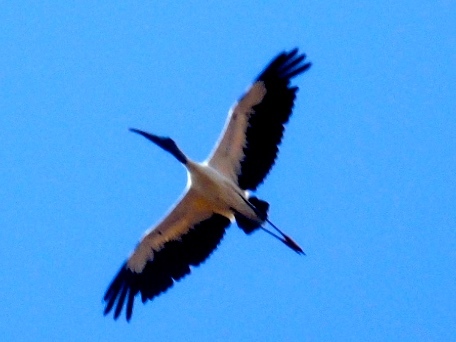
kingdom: Animalia
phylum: Chordata
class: Aves
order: Ciconiiformes
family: Ciconiidae
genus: Mycteria
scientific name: Mycteria americana
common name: Wood stork
